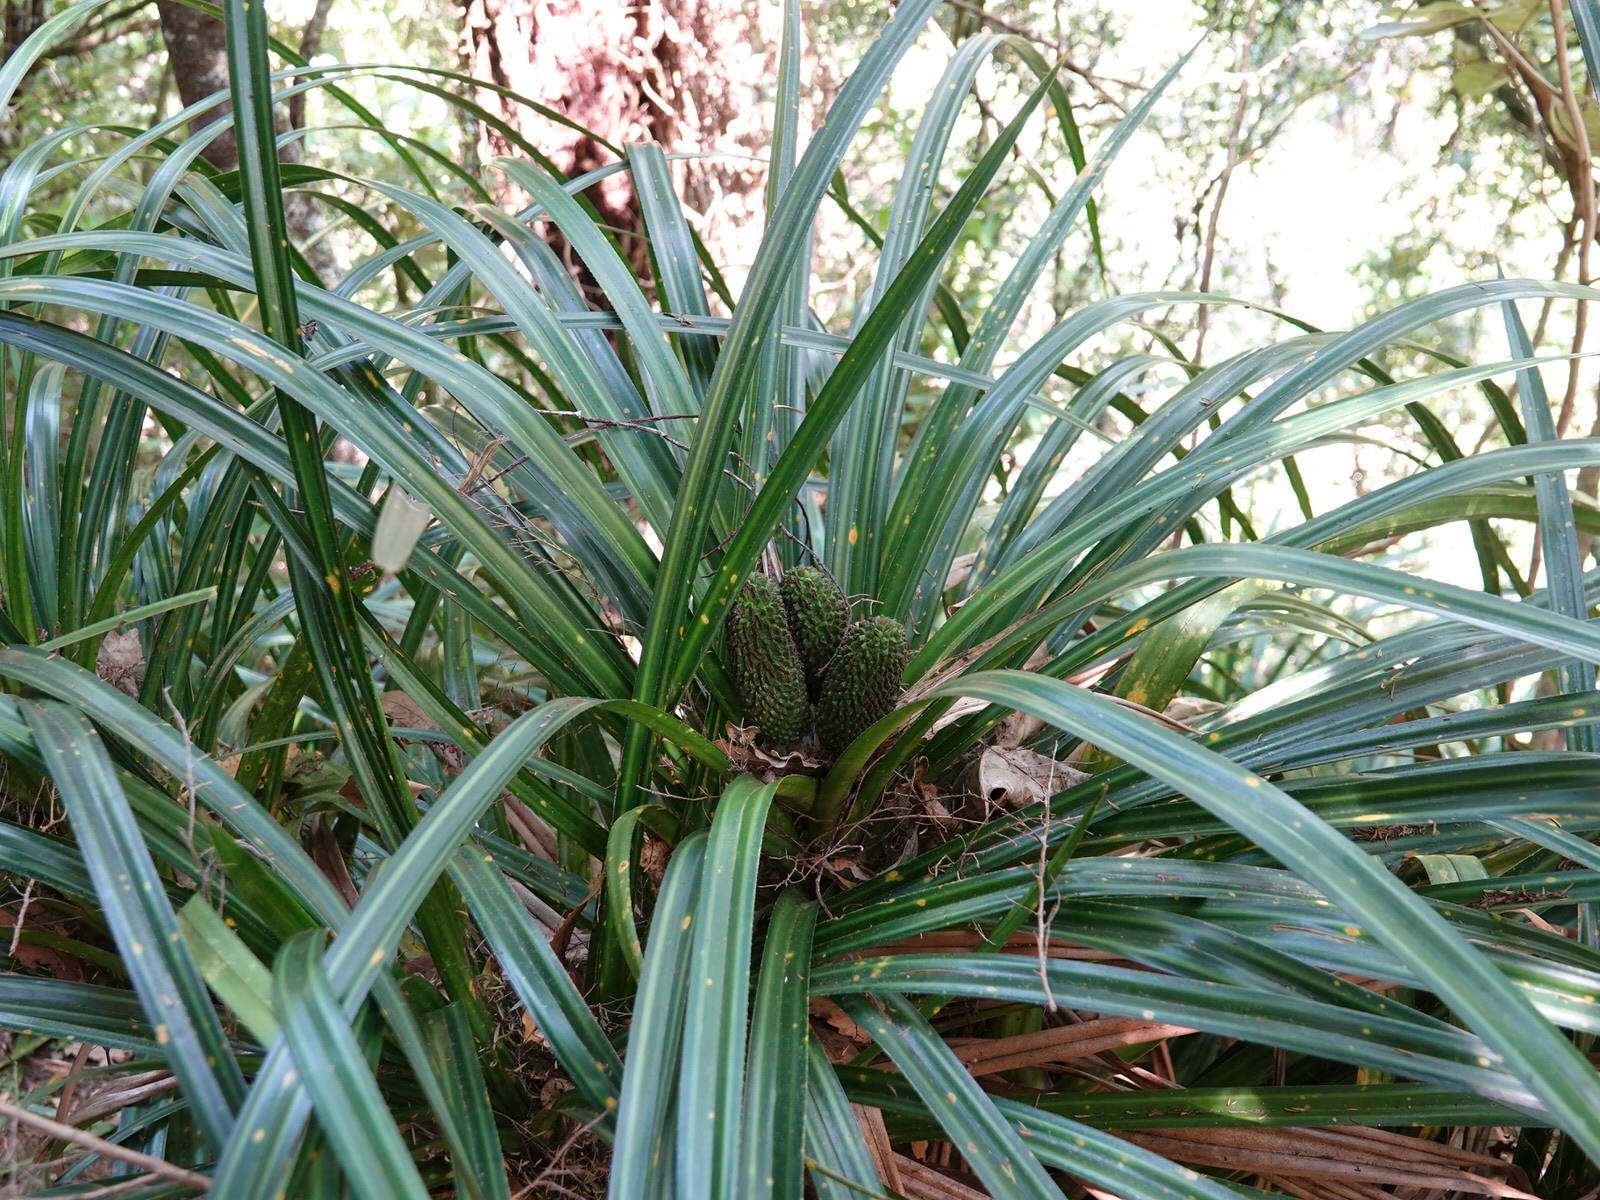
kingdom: Plantae
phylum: Tracheophyta
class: Liliopsida
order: Pandanales
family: Pandanaceae
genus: Freycinetia
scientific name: Freycinetia banksii
